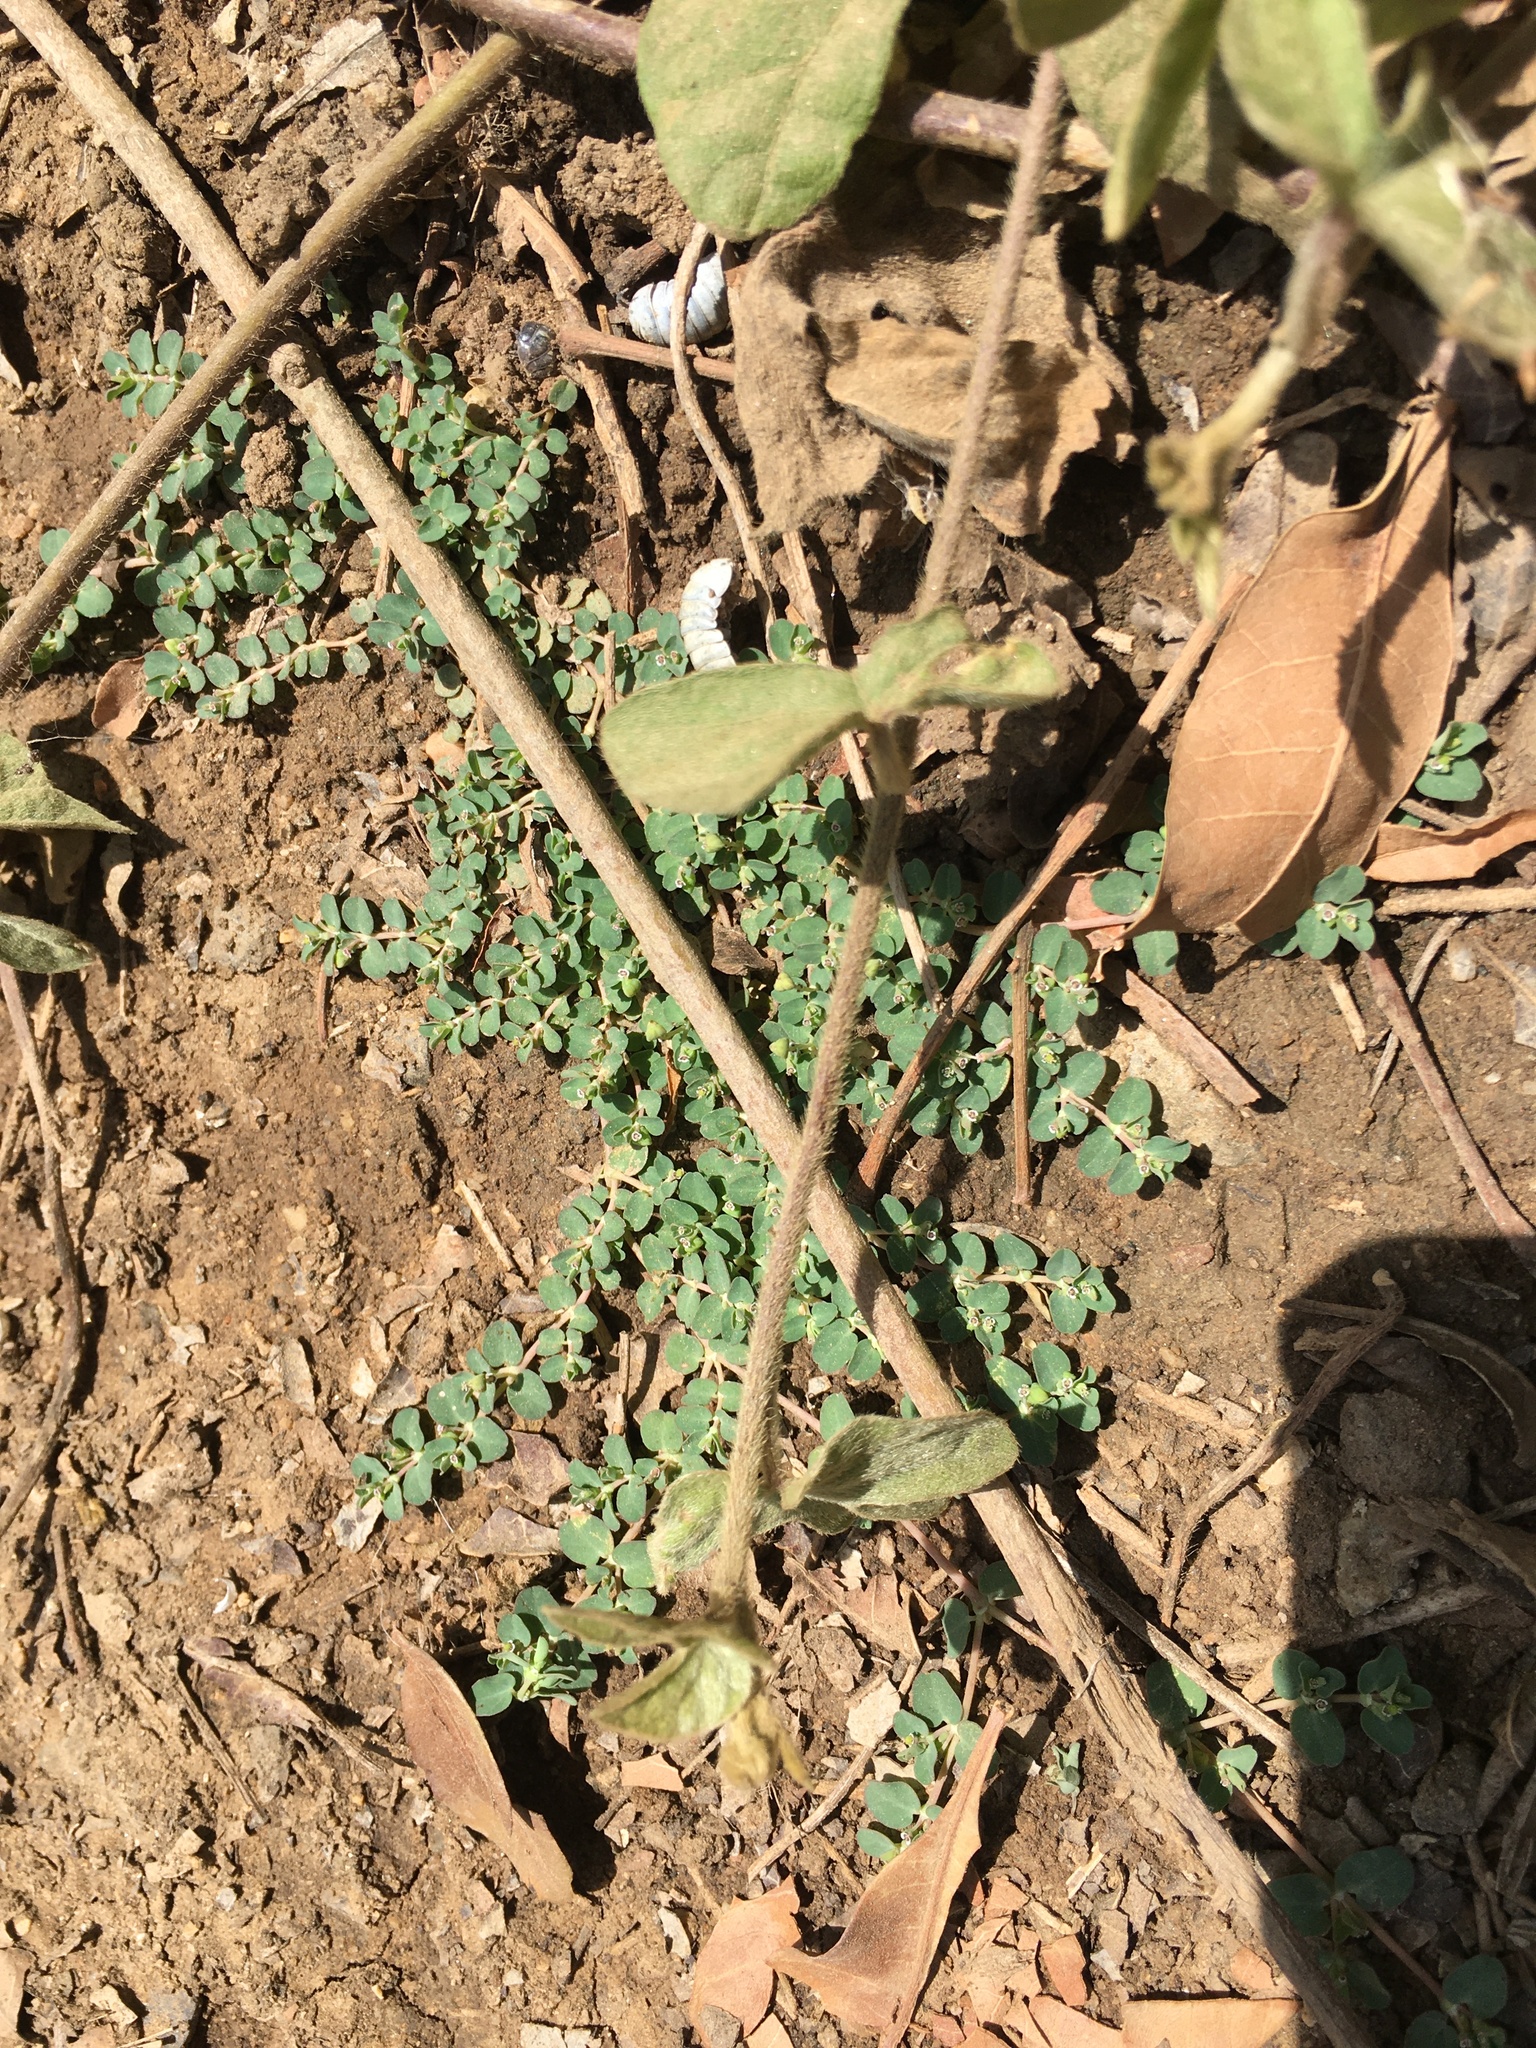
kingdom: Plantae
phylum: Tracheophyta
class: Magnoliopsida
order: Malpighiales
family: Euphorbiaceae
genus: Euphorbia
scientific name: Euphorbia serpens
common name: Matted sandmat
